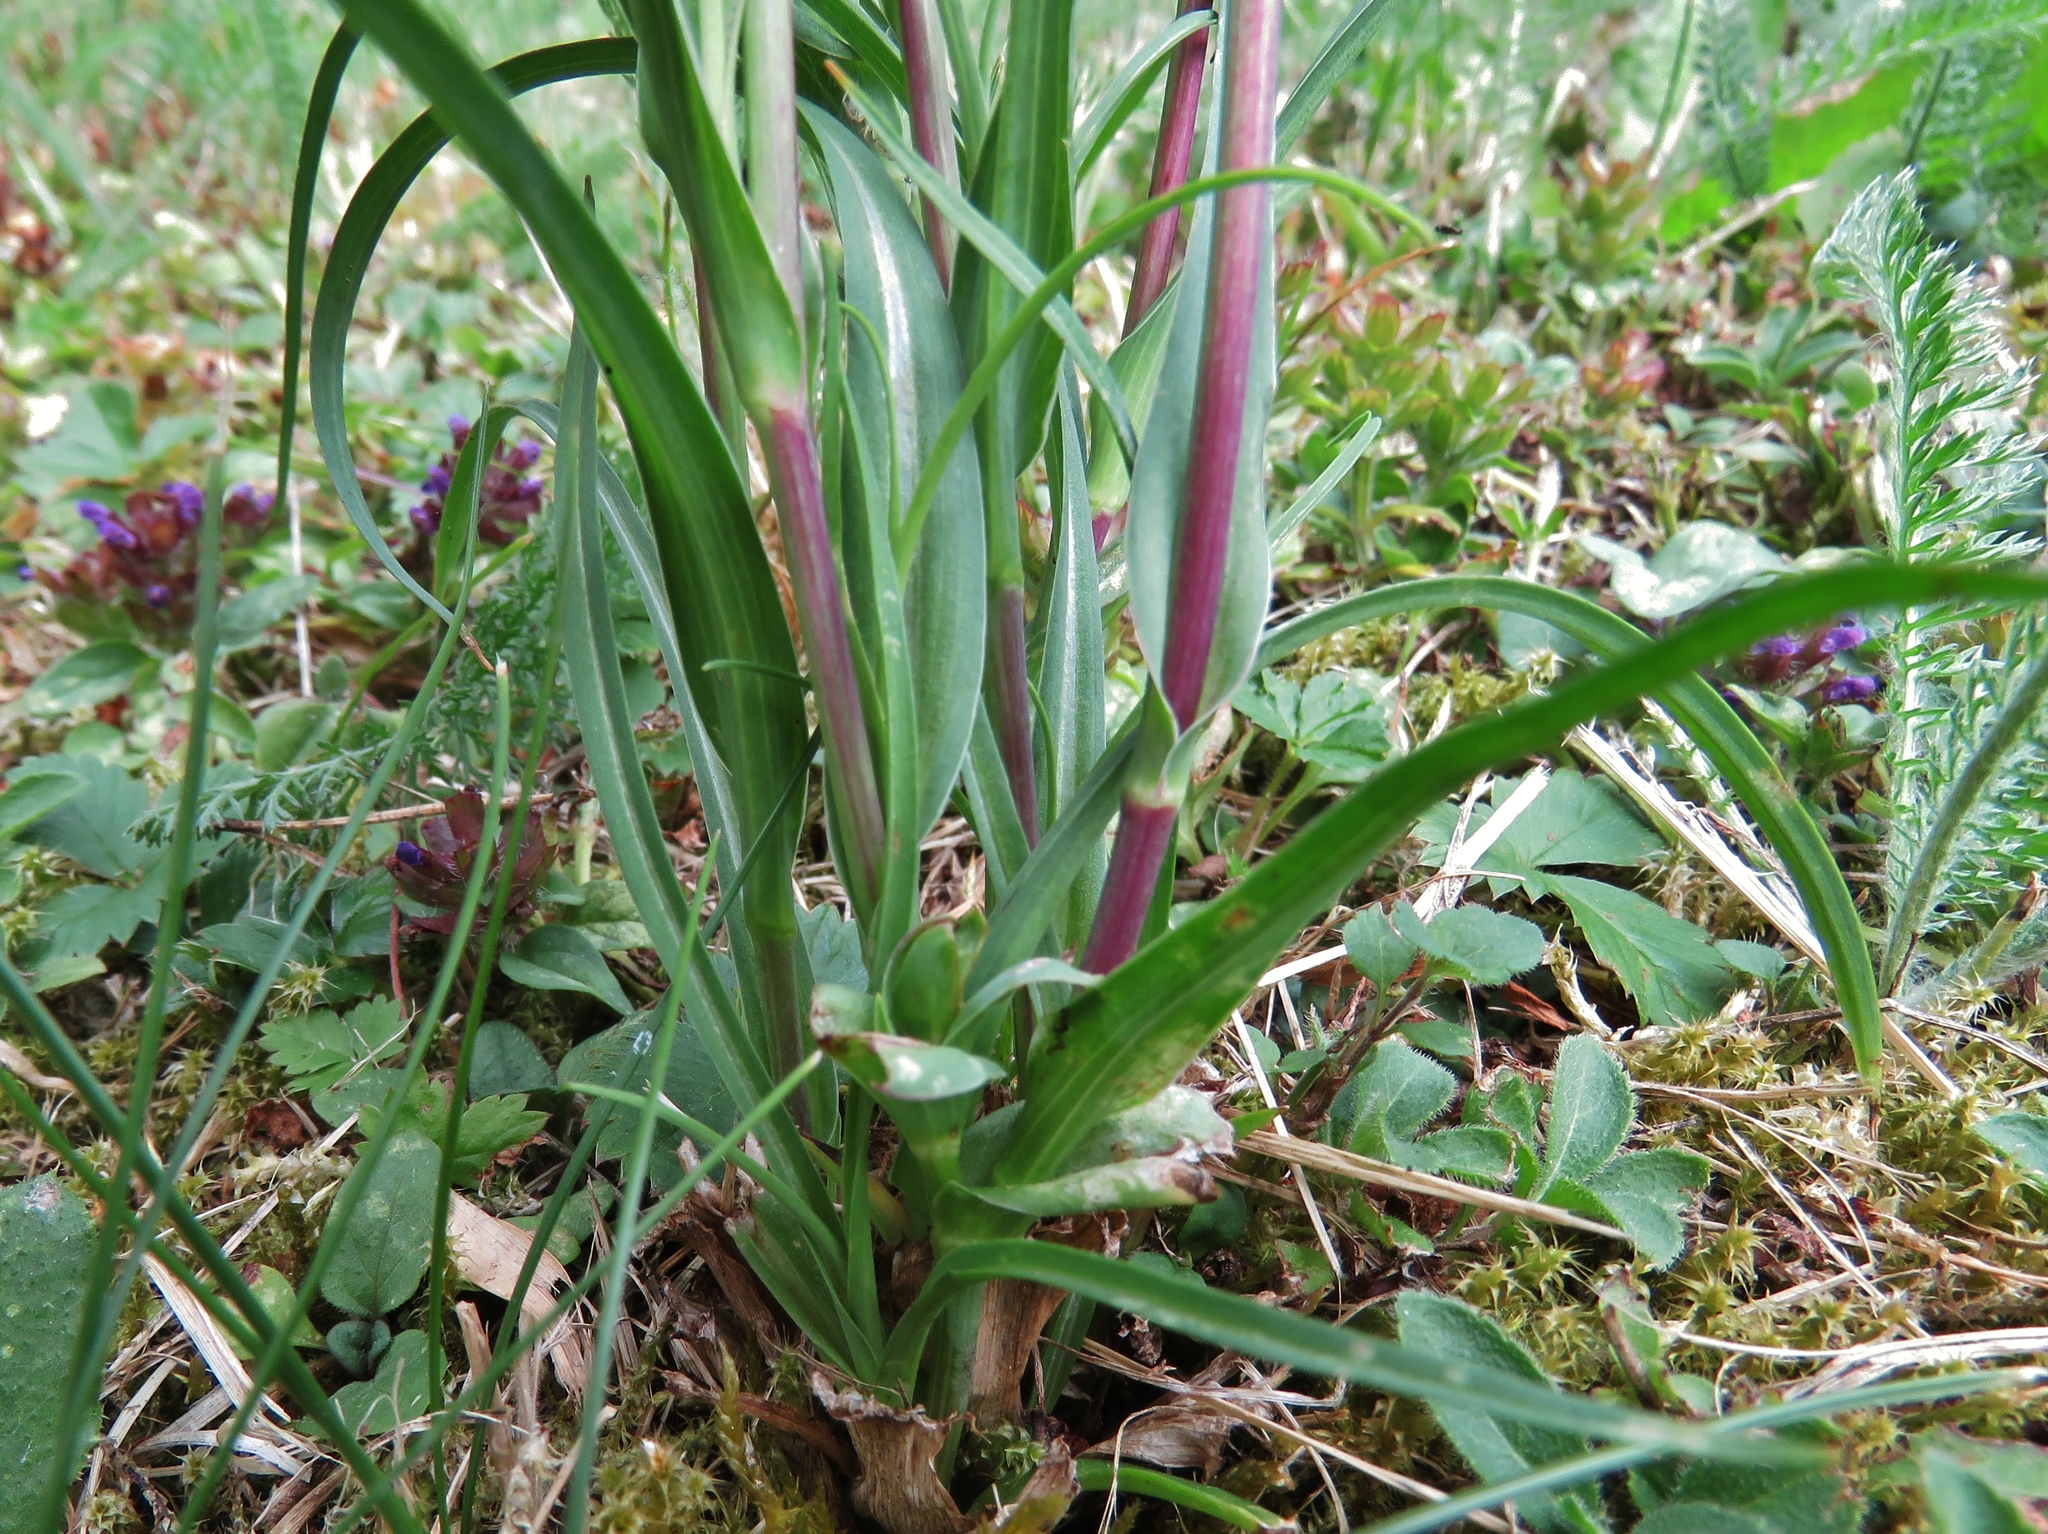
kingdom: Plantae
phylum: Tracheophyta
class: Magnoliopsida
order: Asterales
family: Asteraceae
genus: Tragopogon
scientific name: Tragopogon pratensis
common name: Goat's-beard
